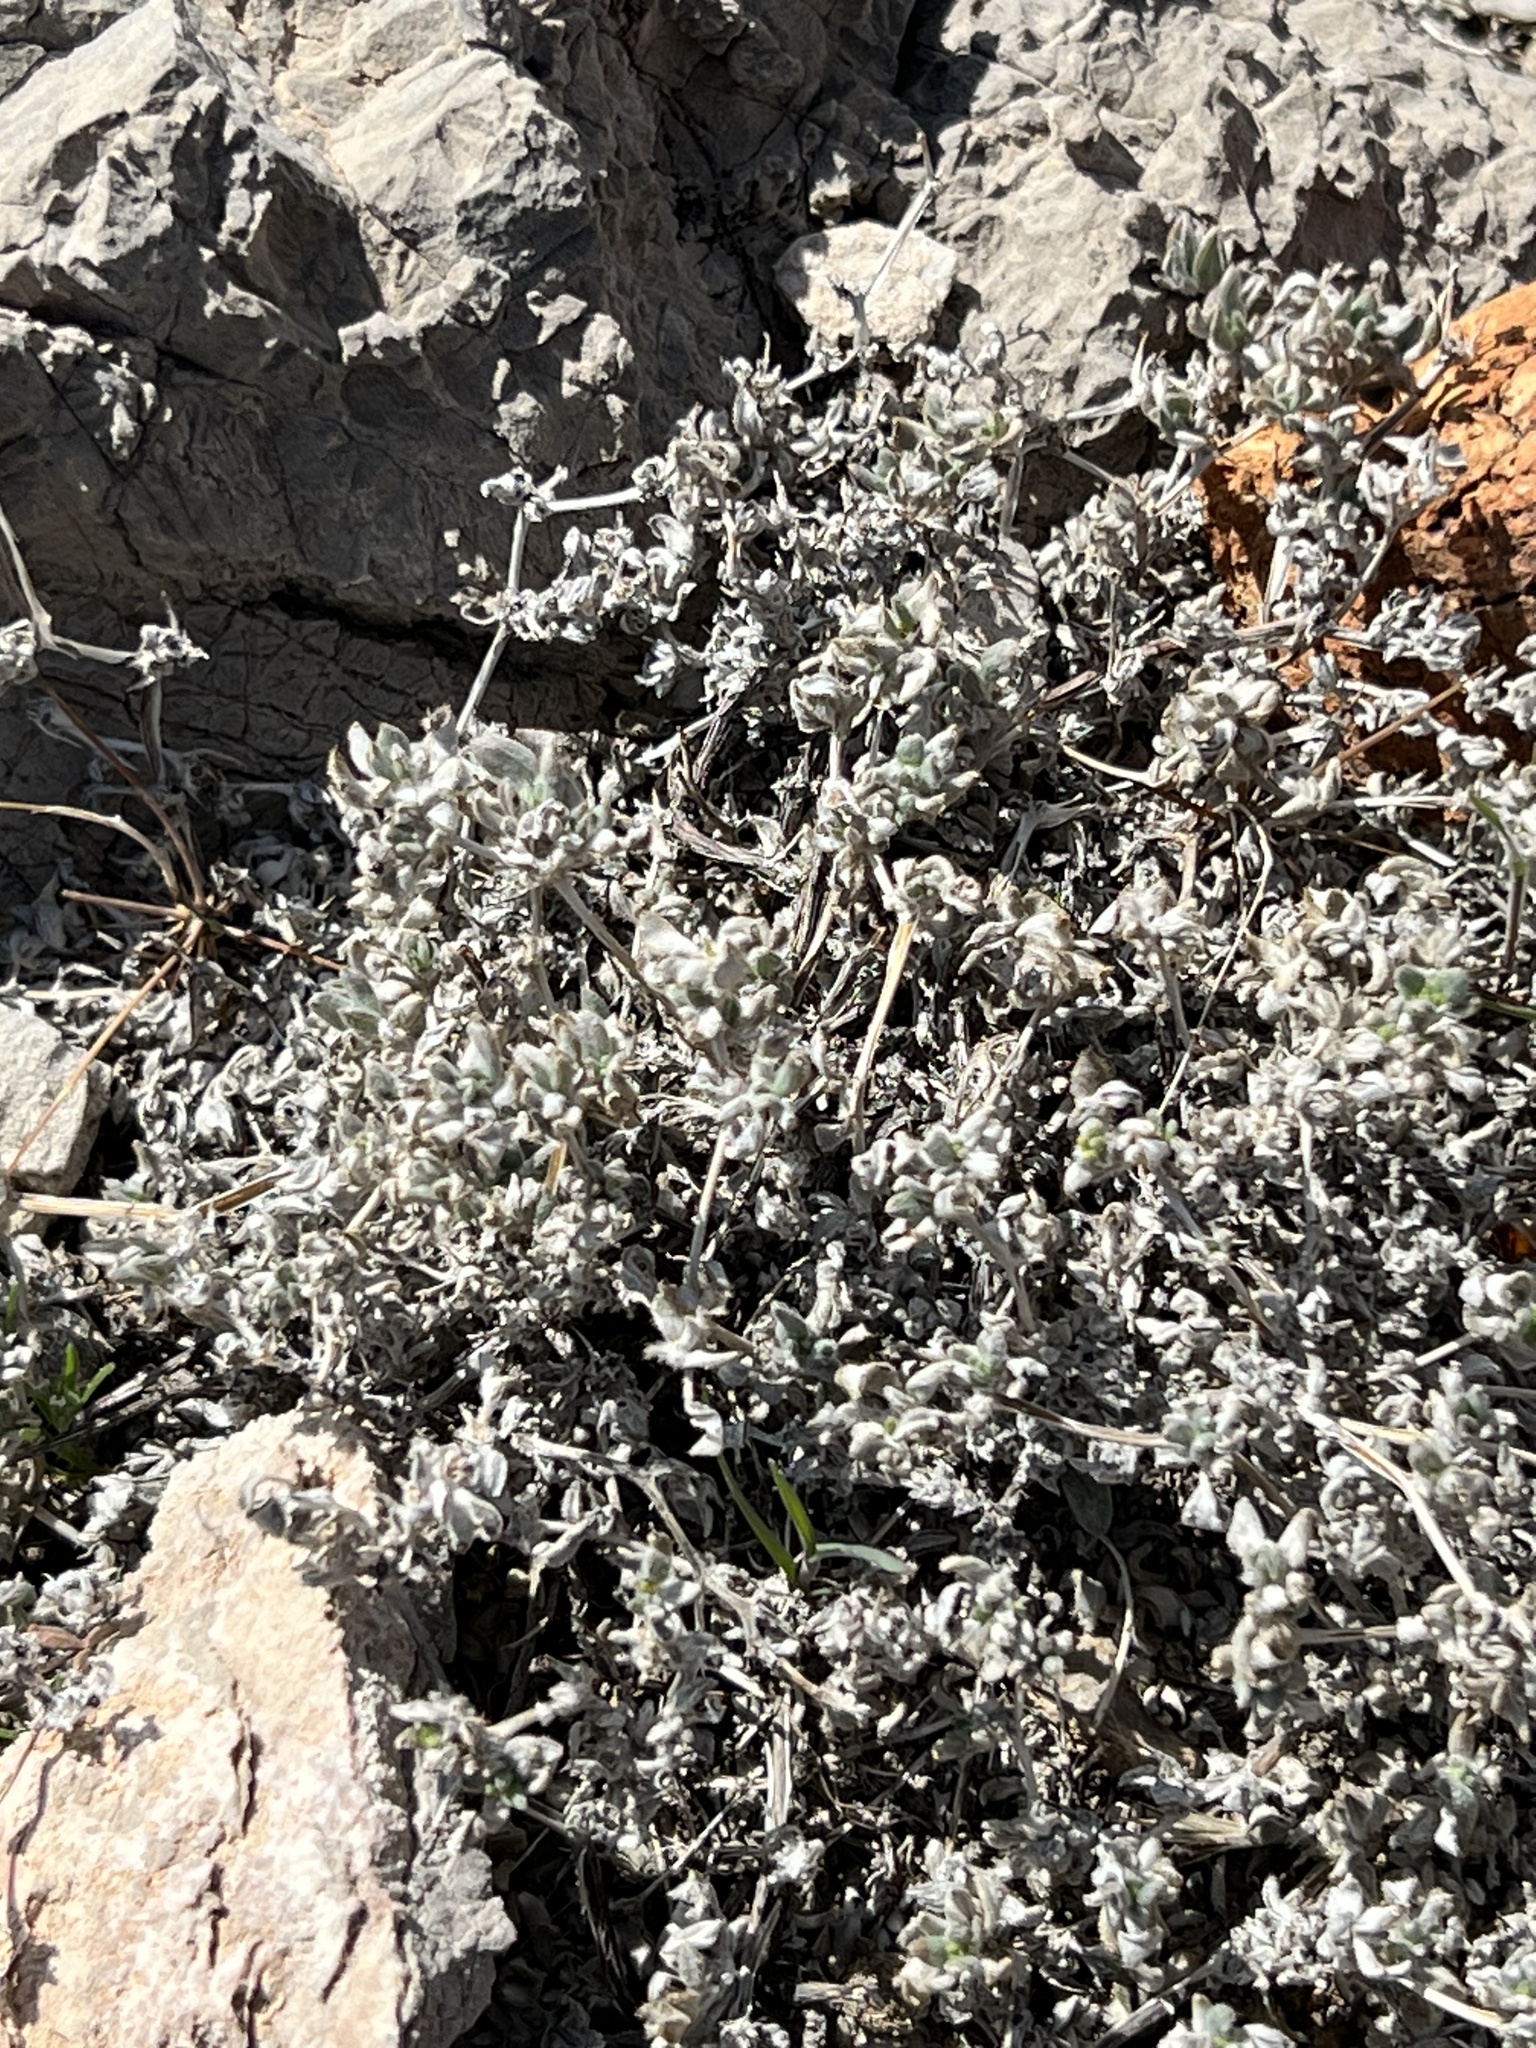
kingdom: Plantae
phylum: Tracheophyta
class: Magnoliopsida
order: Boraginales
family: Ehretiaceae
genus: Tiquilia
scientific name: Tiquilia canescens
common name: Hairy tiquilia
